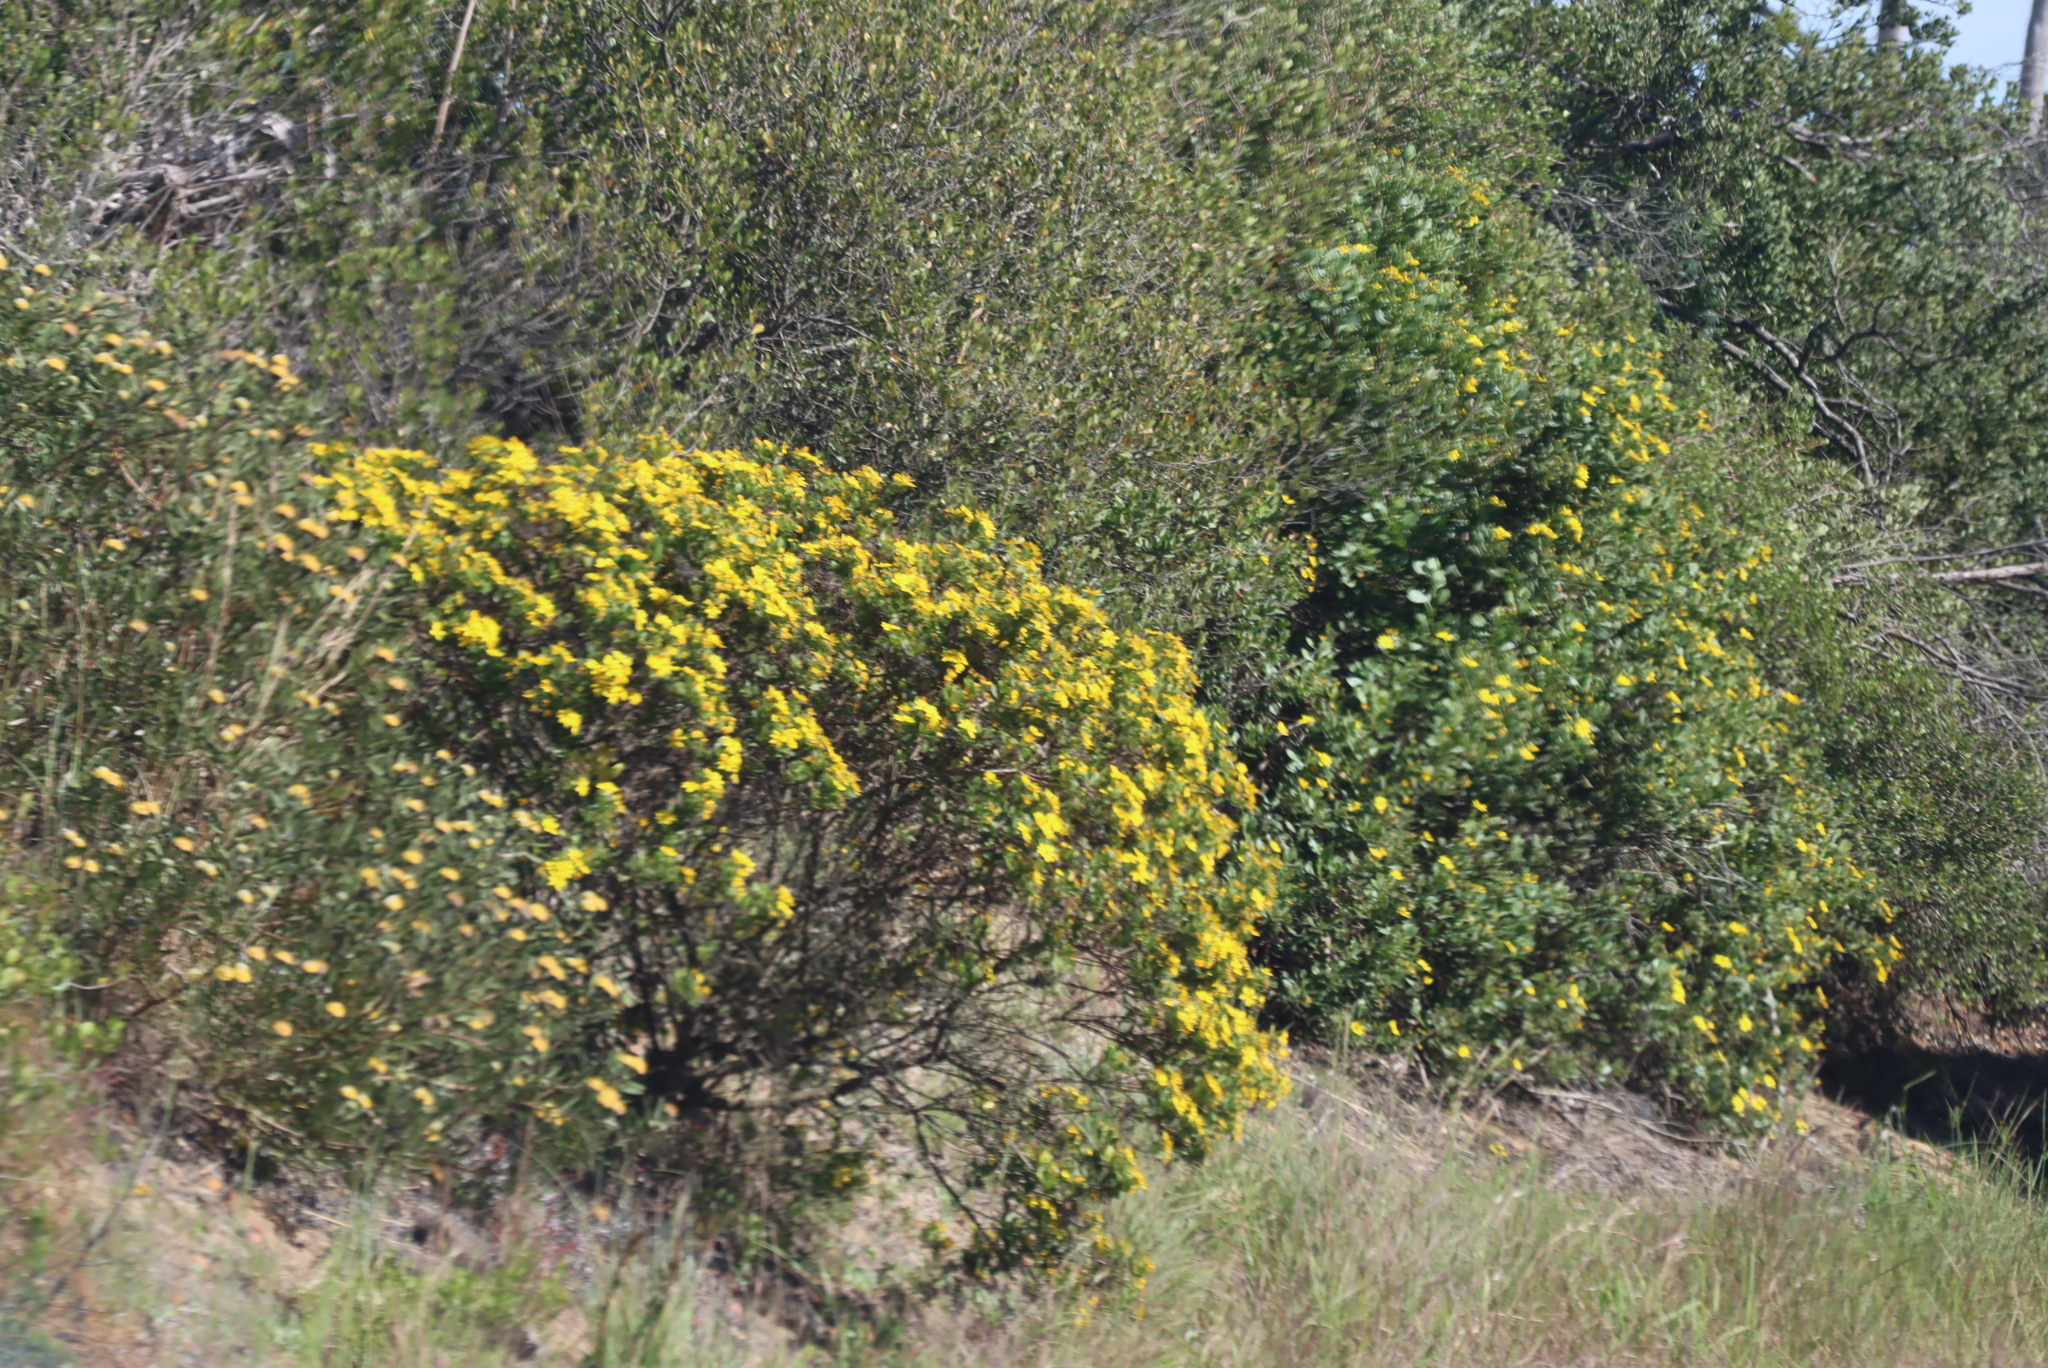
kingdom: Plantae
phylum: Tracheophyta
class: Magnoliopsida
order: Asterales
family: Asteraceae
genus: Osteospermum
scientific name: Osteospermum moniliferum
